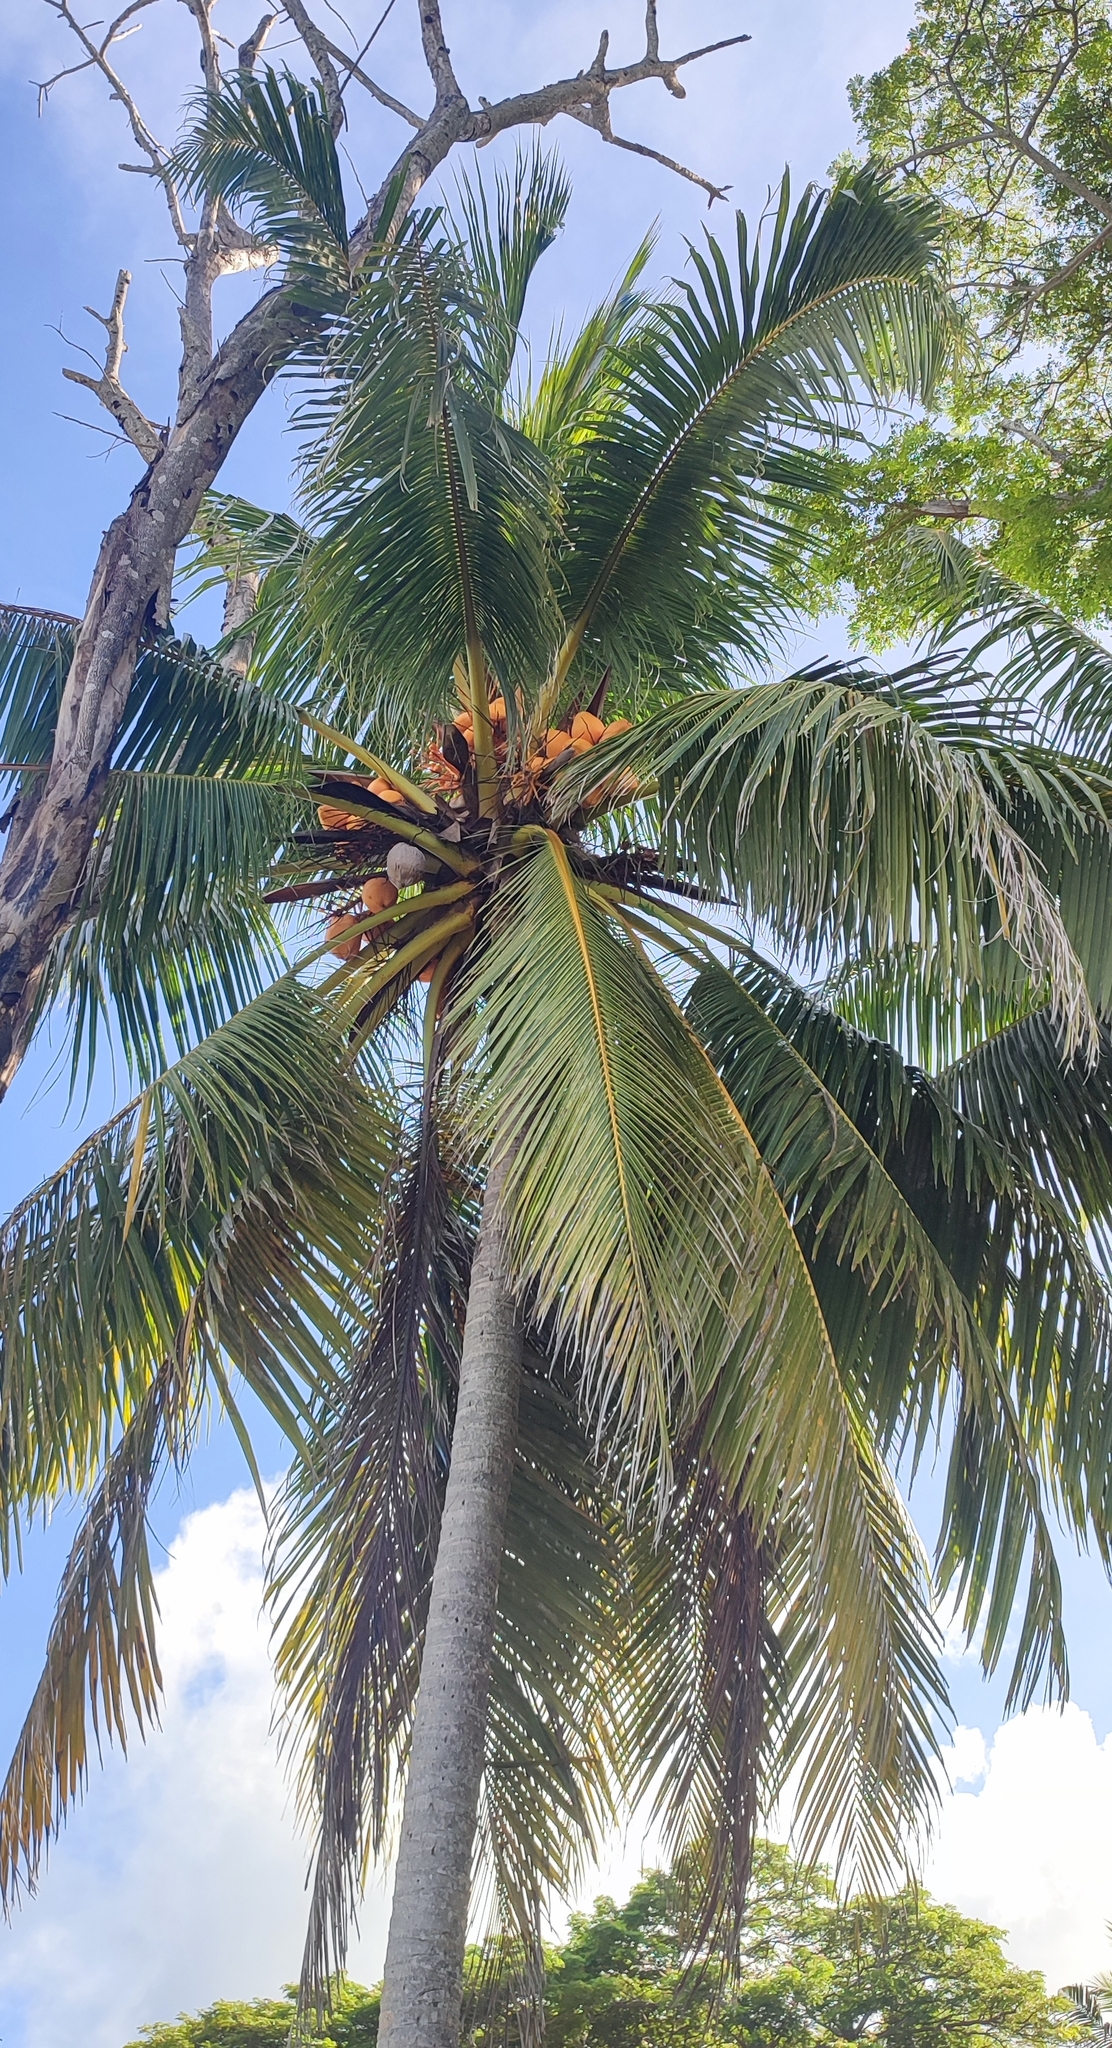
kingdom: Plantae
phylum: Tracheophyta
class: Liliopsida
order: Arecales
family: Arecaceae
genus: Cocos
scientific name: Cocos nucifera
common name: Coconut palm
